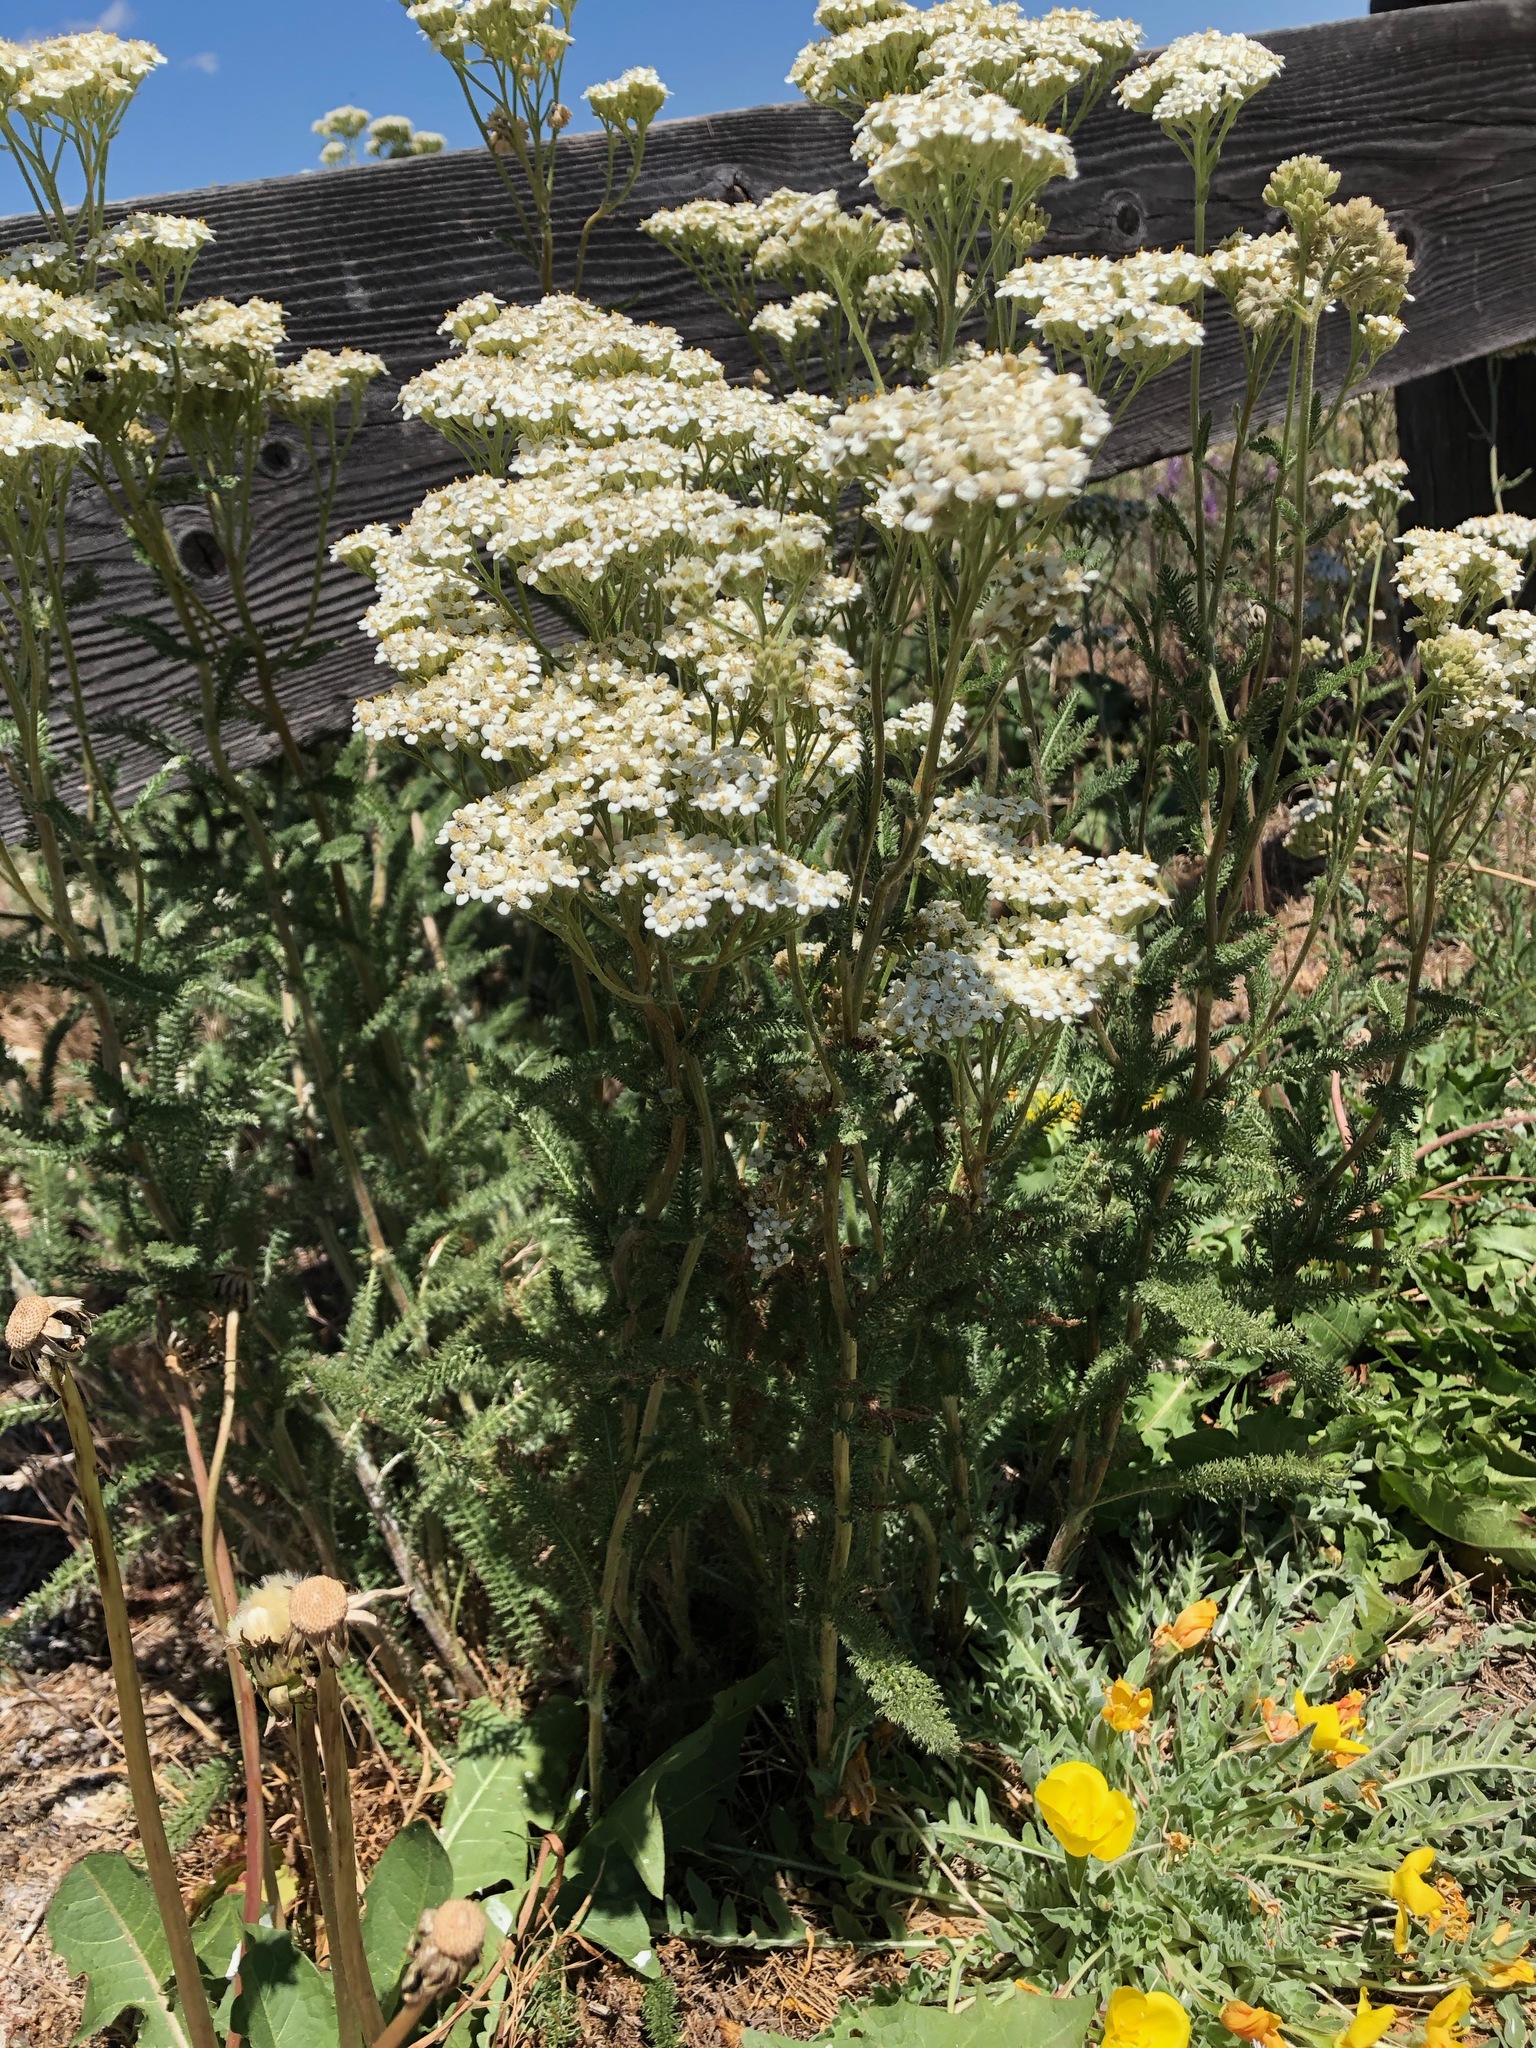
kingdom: Plantae
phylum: Tracheophyta
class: Magnoliopsida
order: Asterales
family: Asteraceae
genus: Achillea
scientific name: Achillea millefolium
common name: Yarrow
